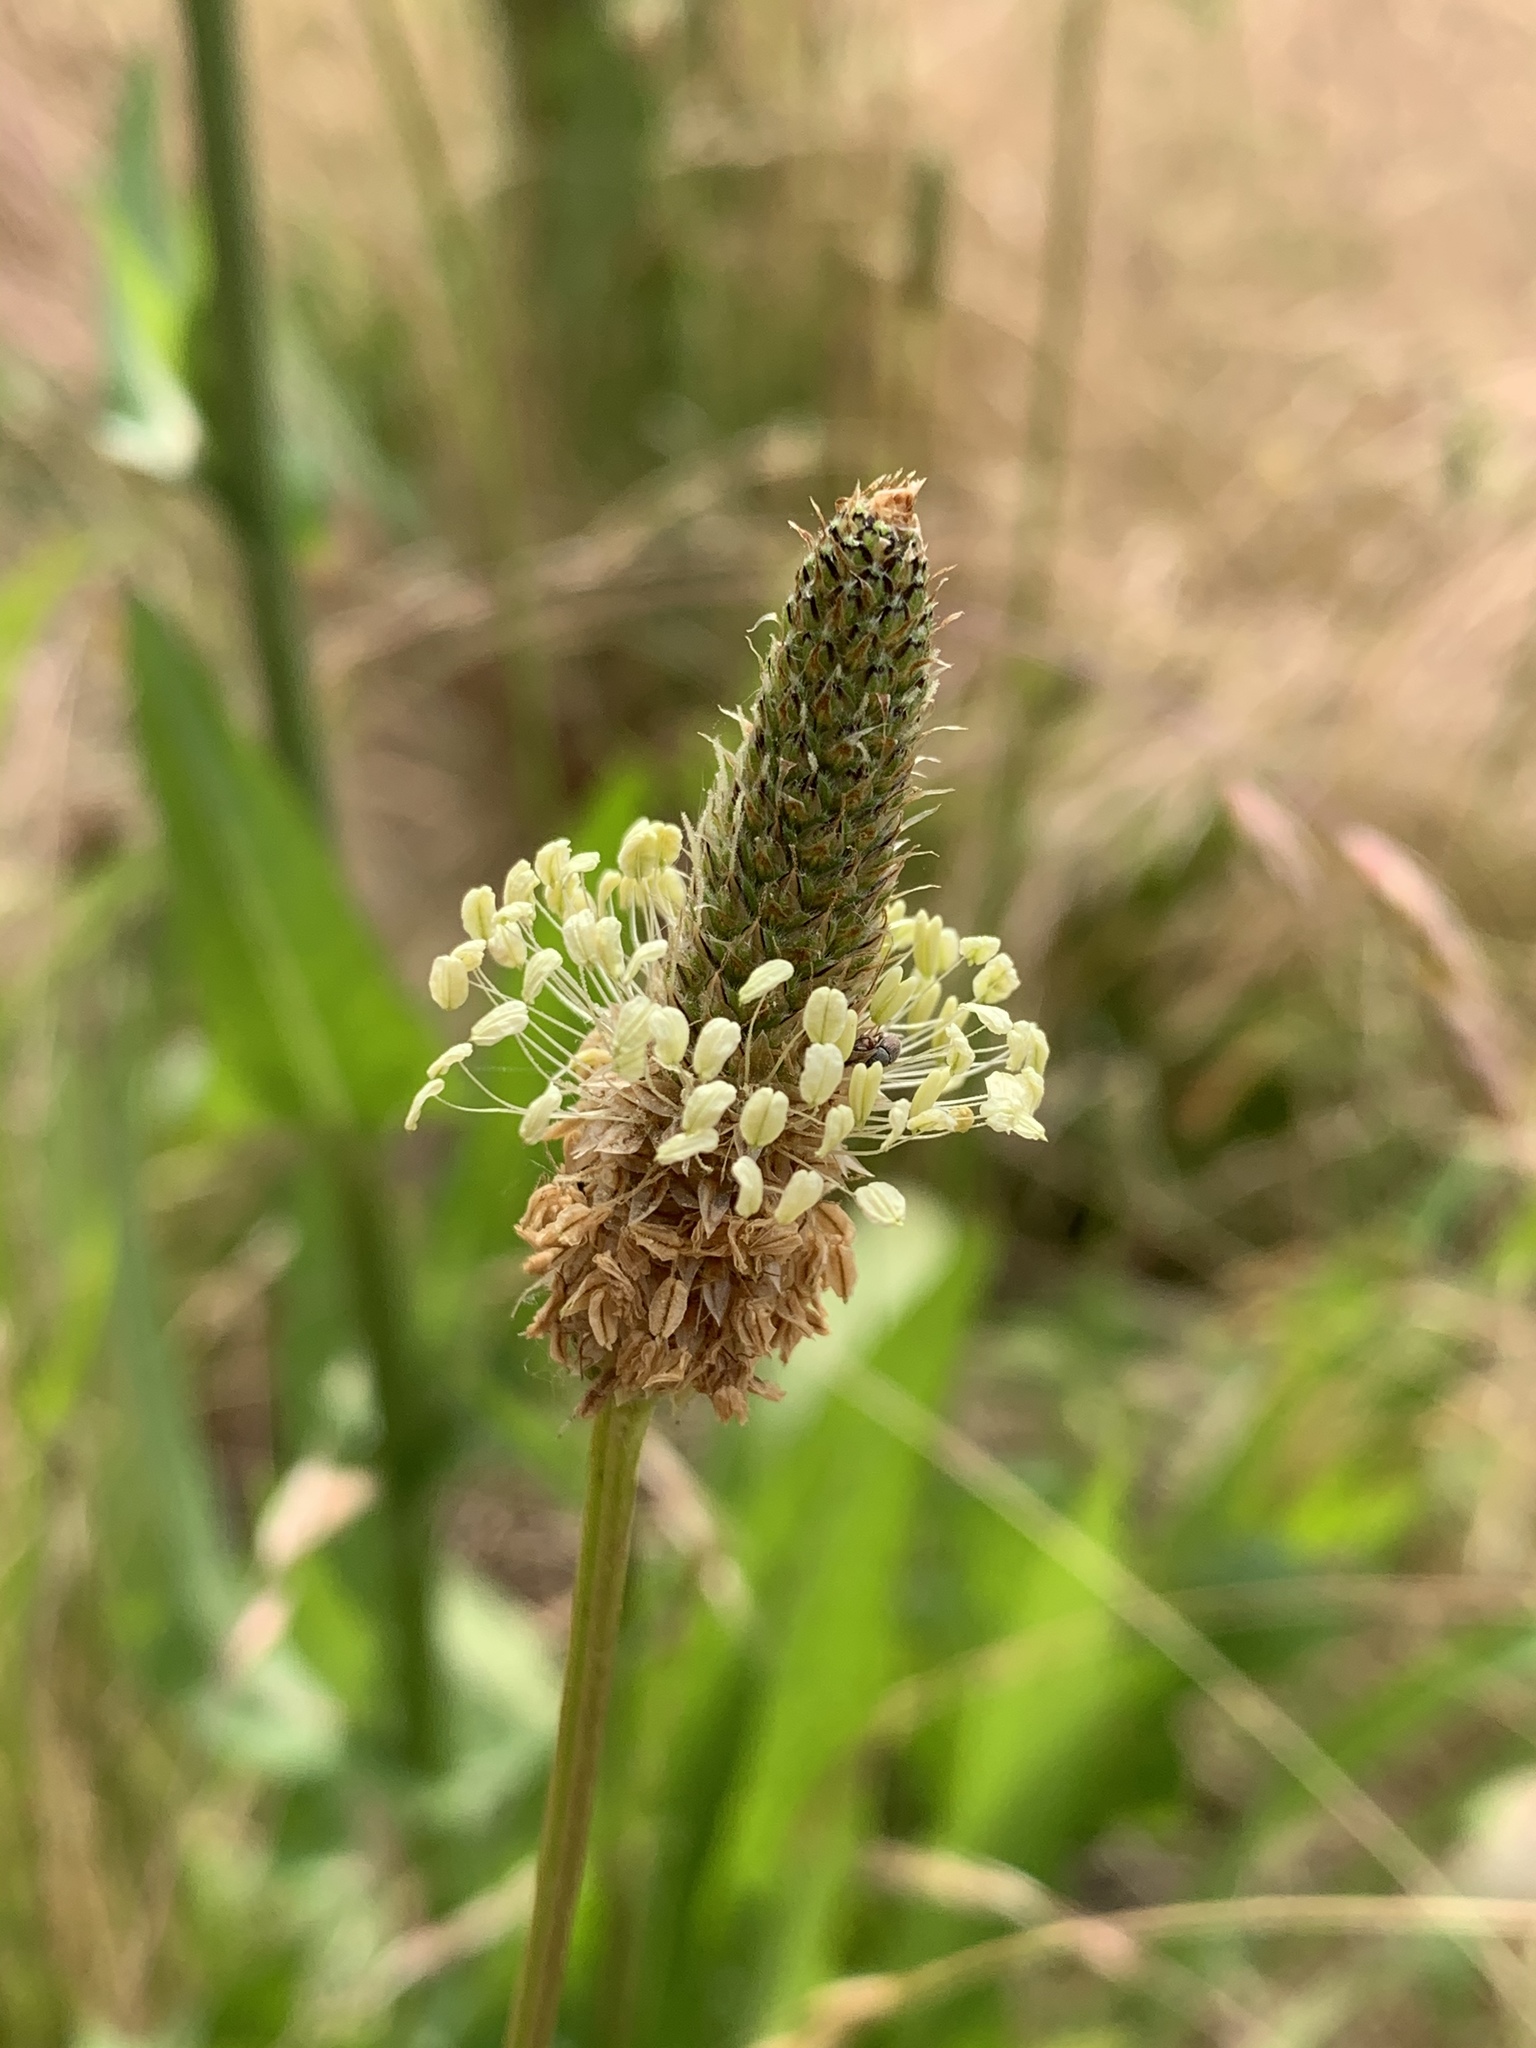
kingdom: Plantae
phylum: Tracheophyta
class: Magnoliopsida
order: Lamiales
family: Plantaginaceae
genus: Plantago
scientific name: Plantago lanceolata
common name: Ribwort plantain
